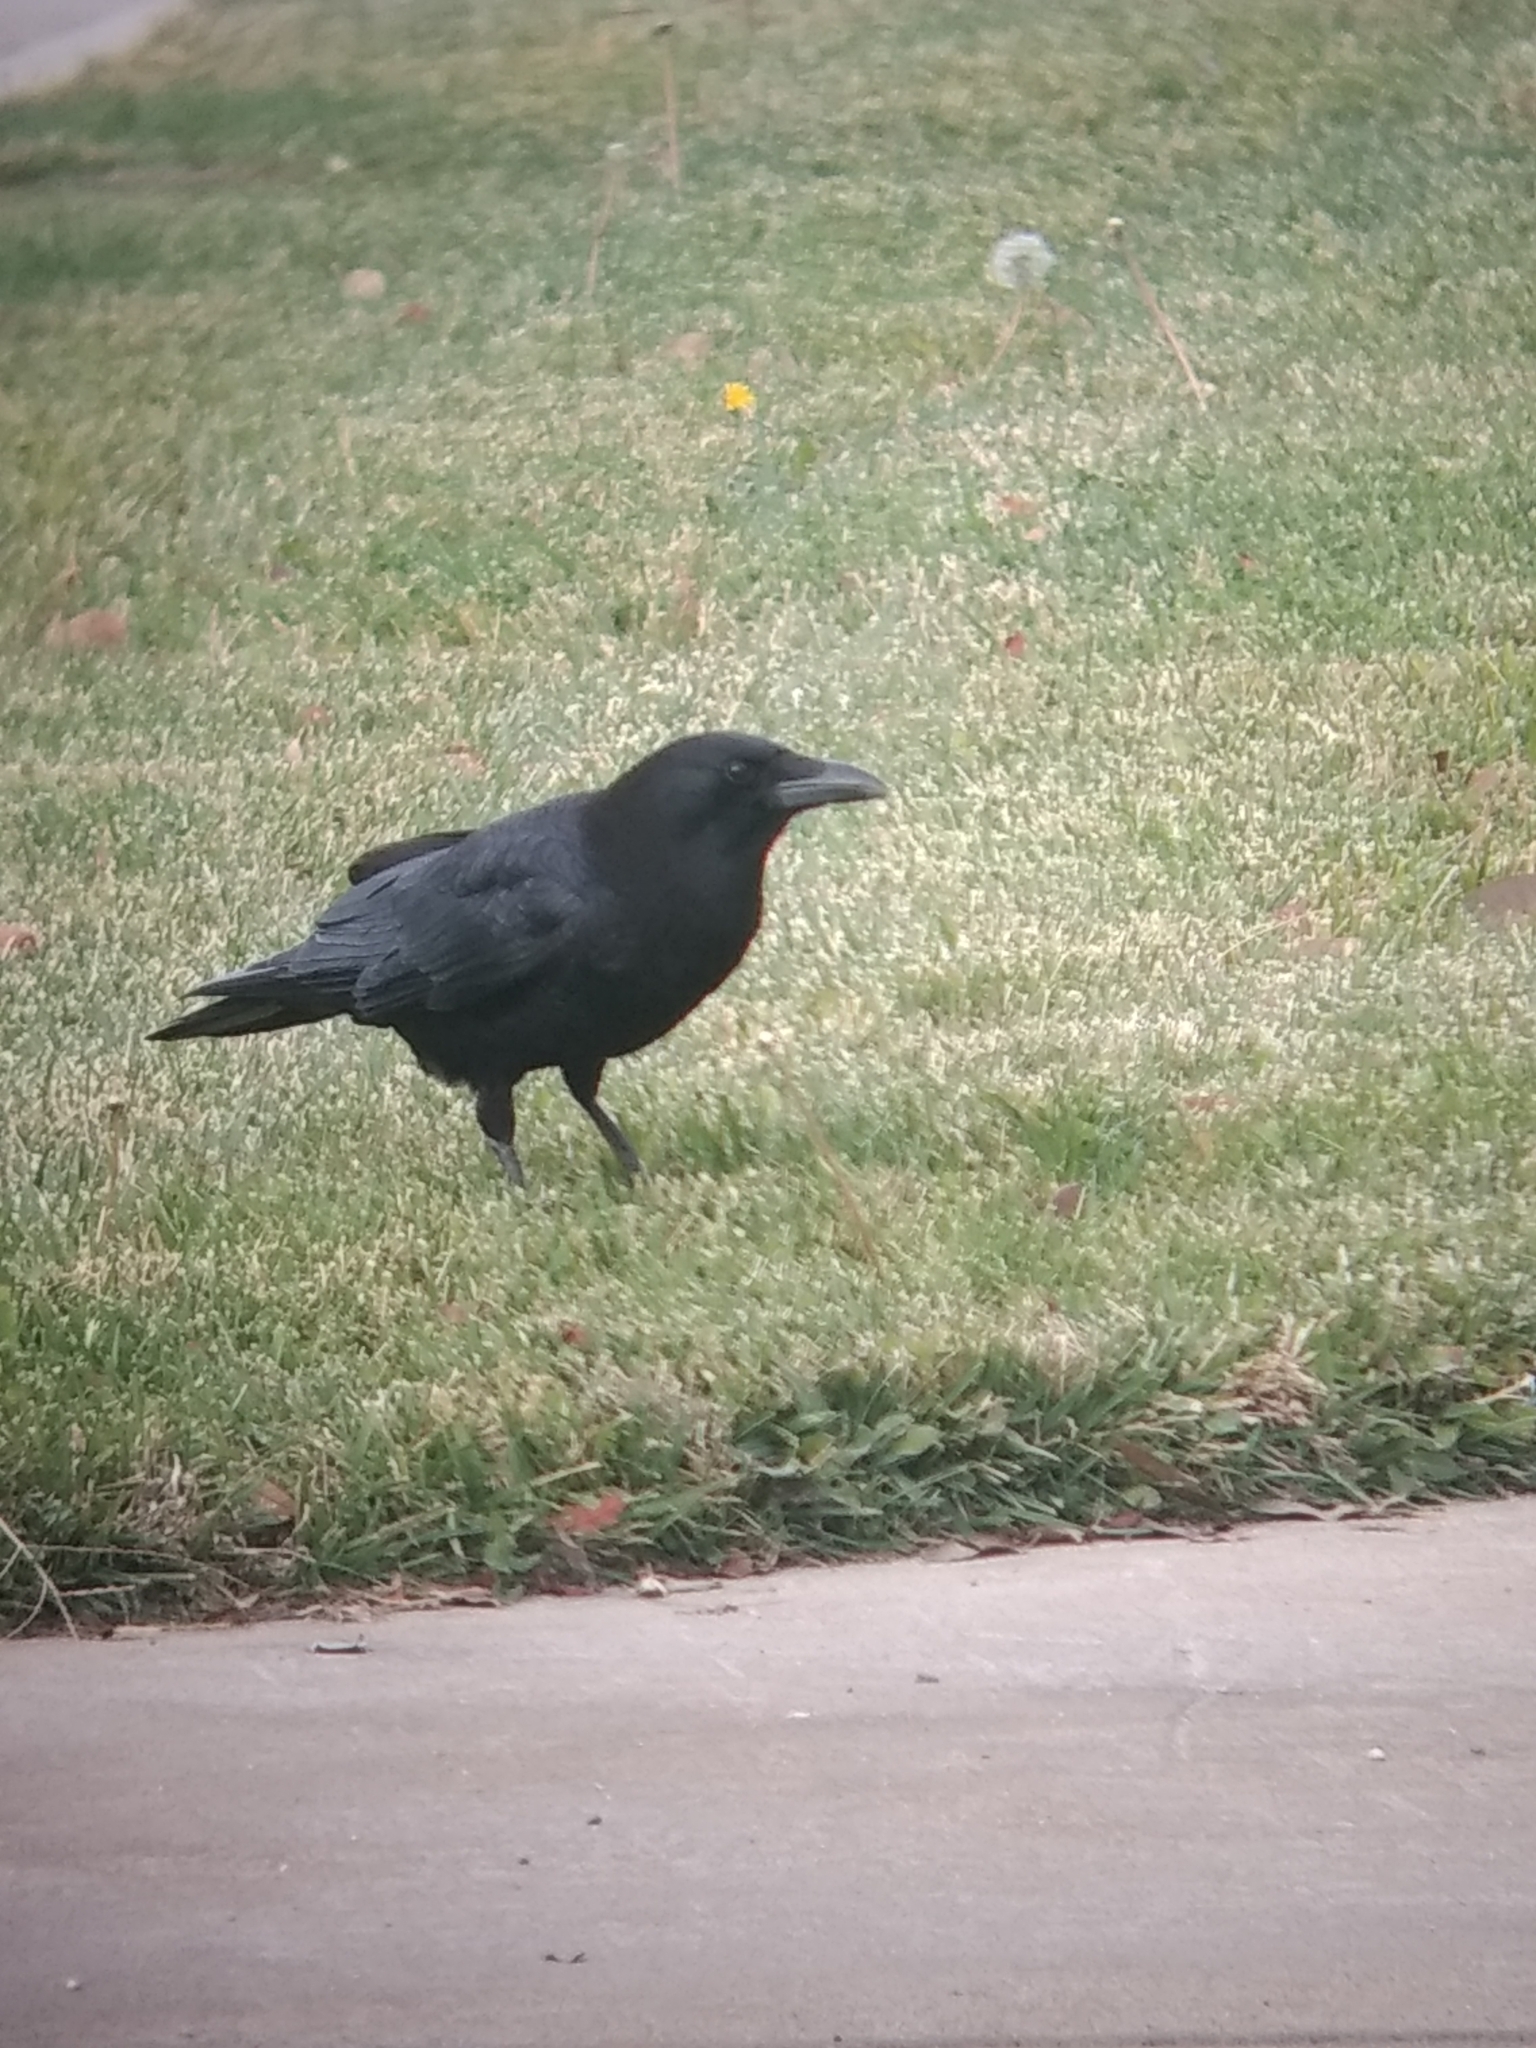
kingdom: Animalia
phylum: Chordata
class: Aves
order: Passeriformes
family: Corvidae
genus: Corvus
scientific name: Corvus brachyrhynchos
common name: American crow
